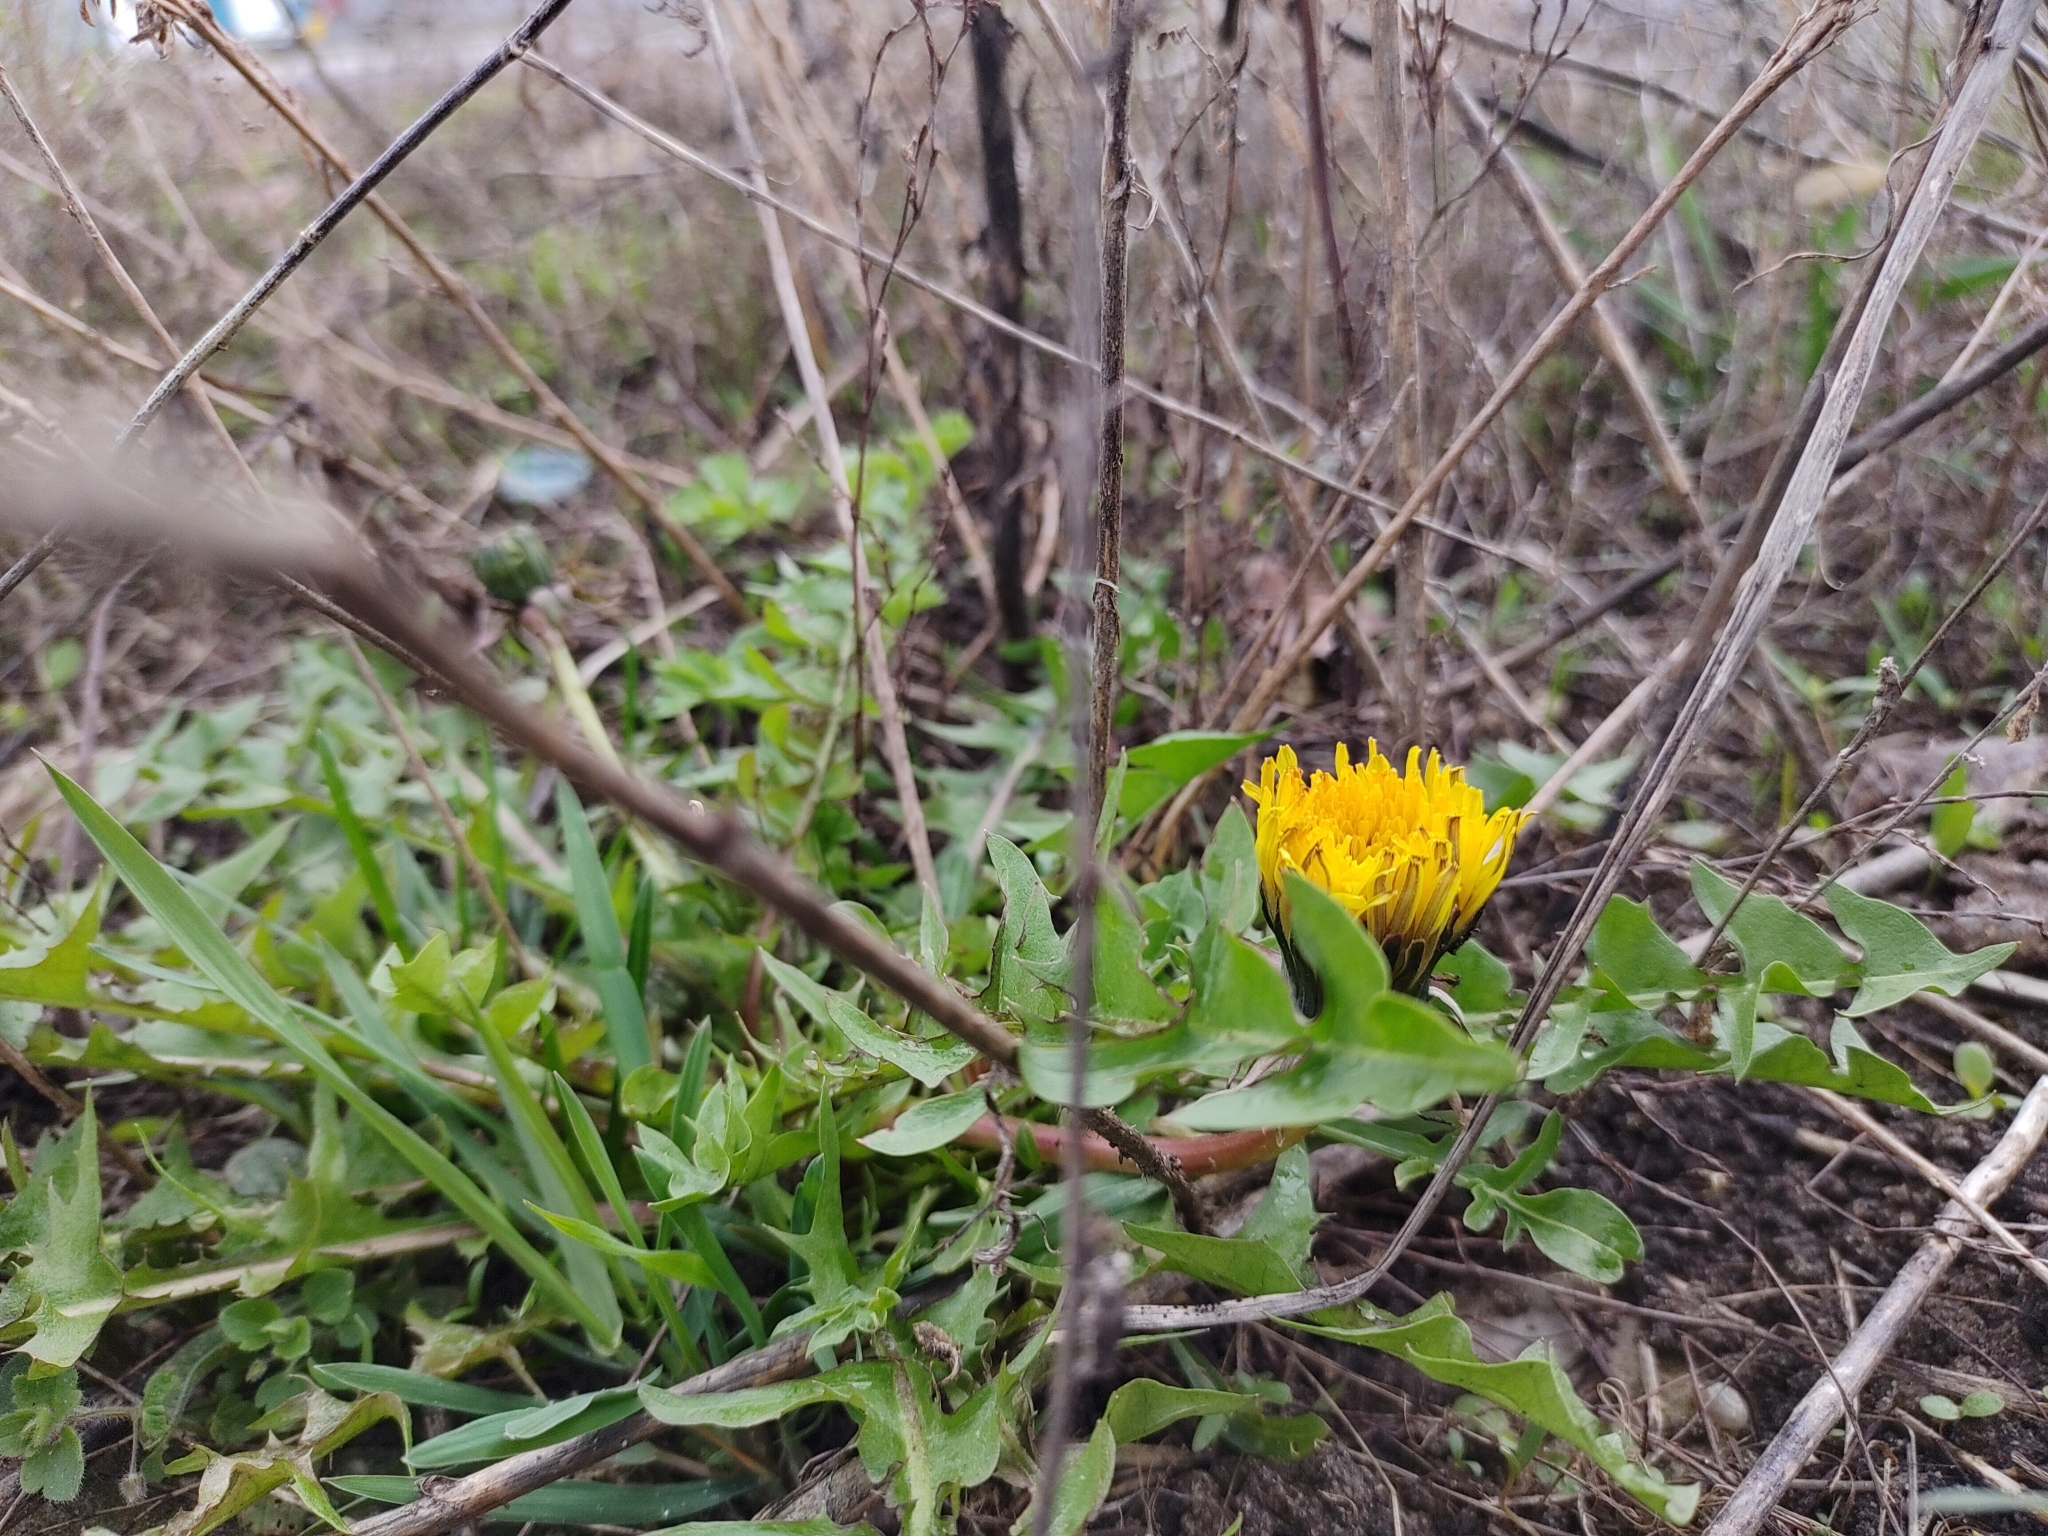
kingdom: Plantae
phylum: Tracheophyta
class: Magnoliopsida
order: Asterales
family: Asteraceae
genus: Taraxacum
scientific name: Taraxacum officinale
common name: Common dandelion
